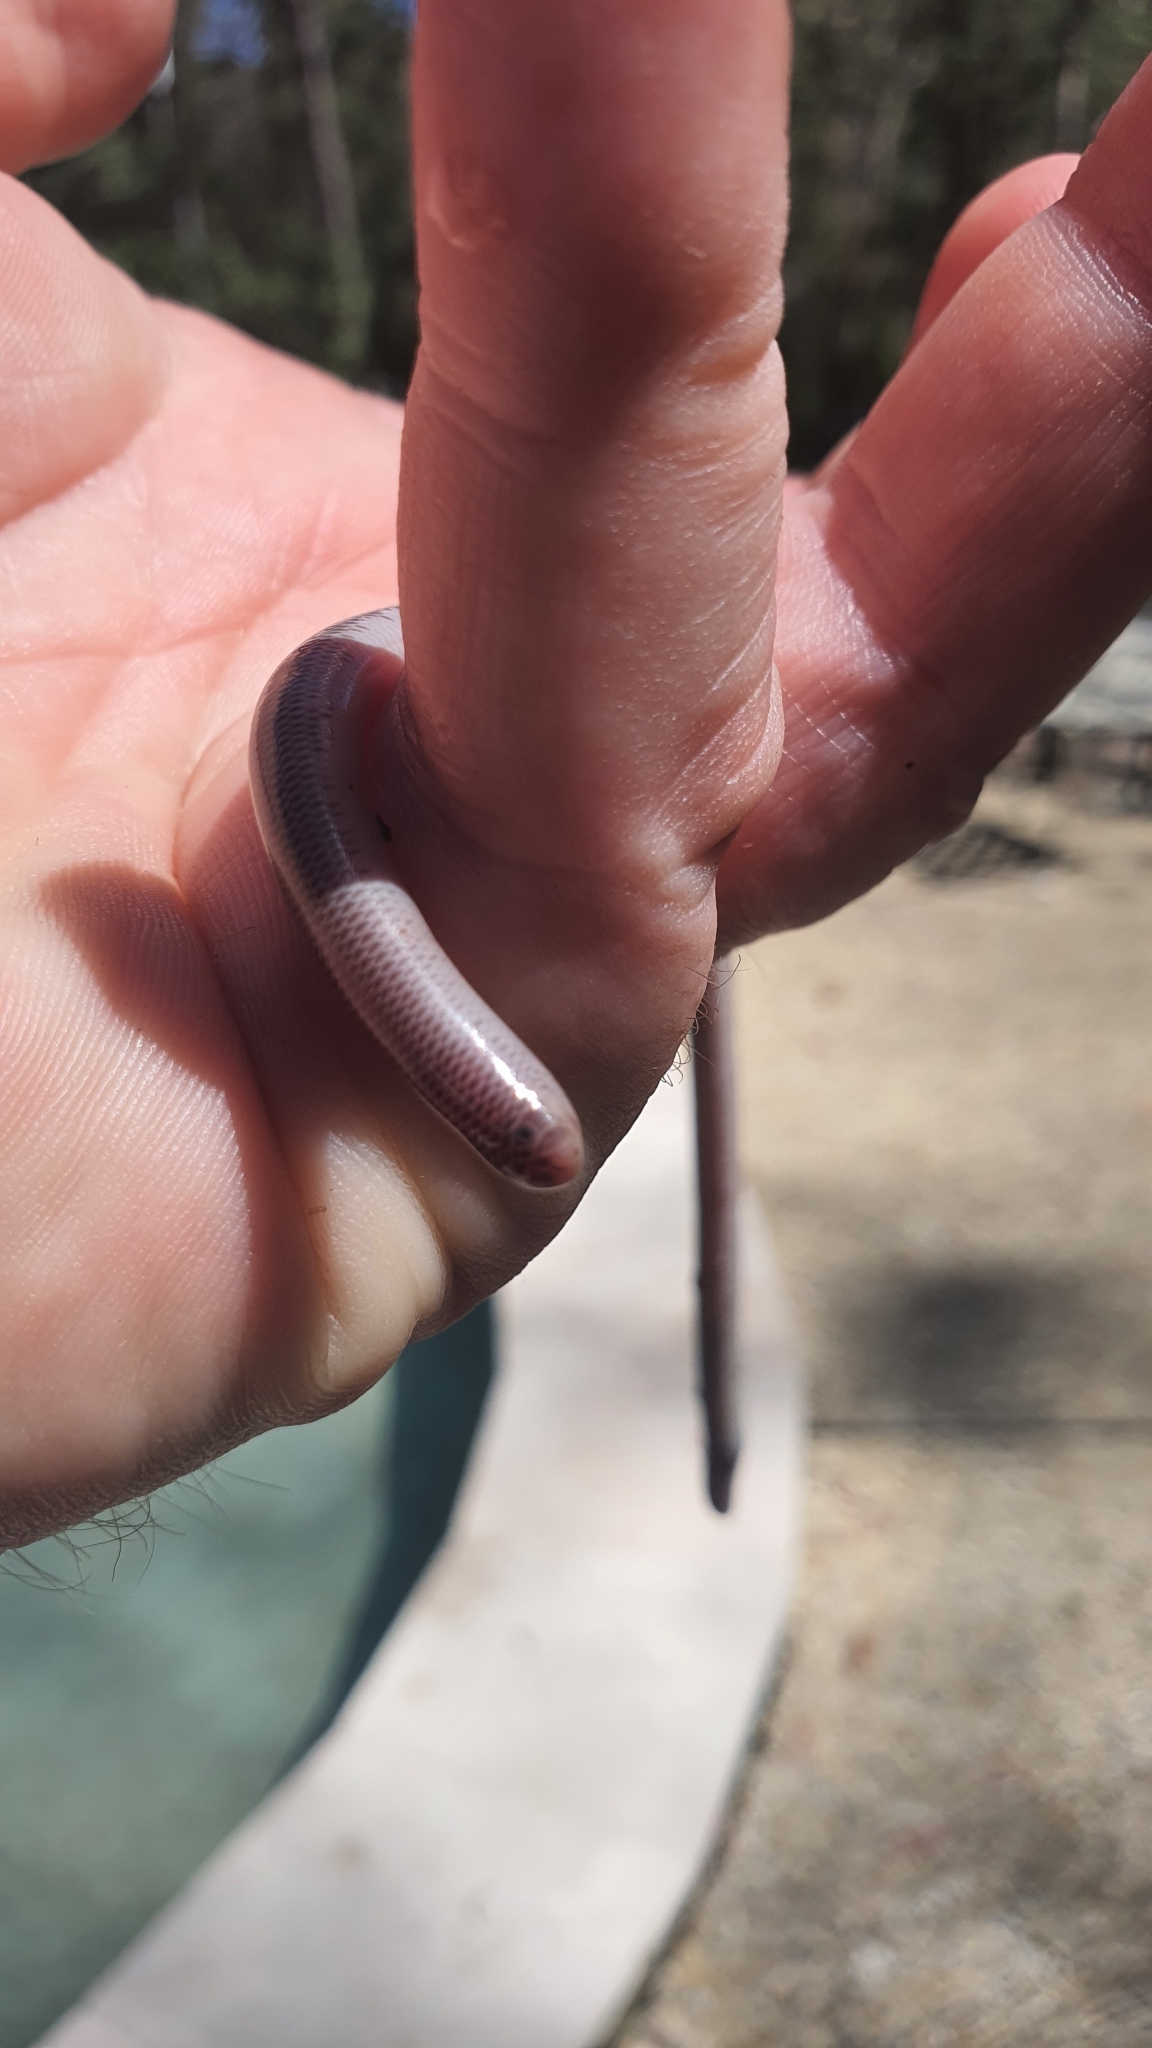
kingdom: Animalia
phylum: Chordata
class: Squamata
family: Typhlopidae
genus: Anilios
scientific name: Anilios nigrescens
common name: Blackish blind snake
